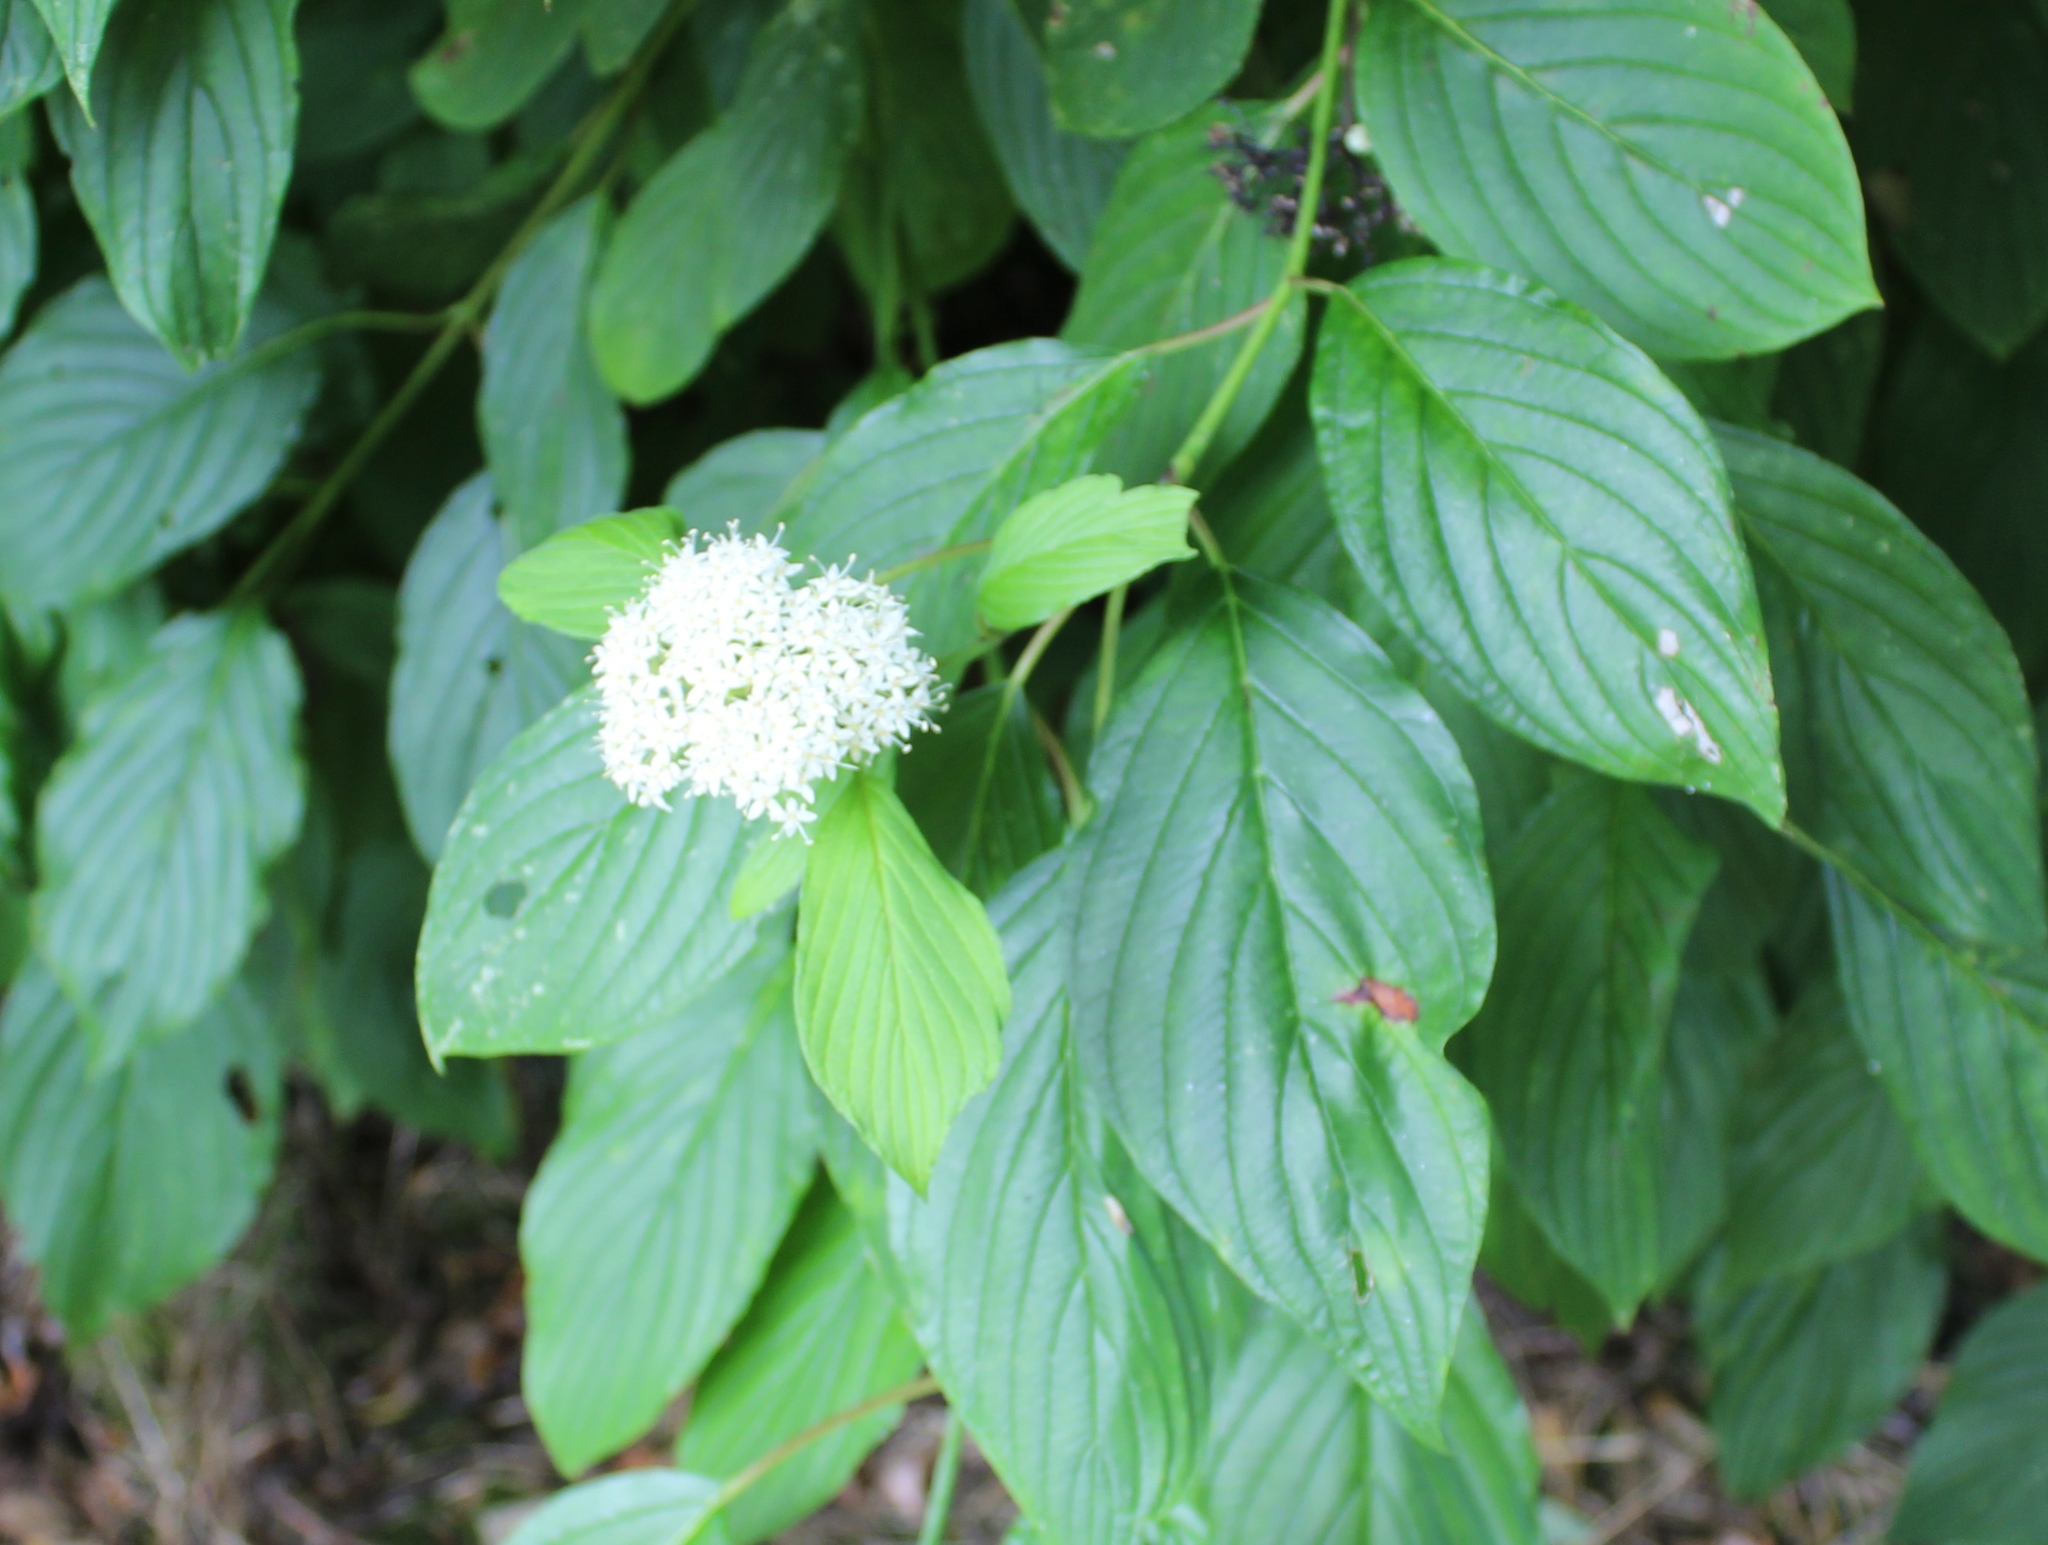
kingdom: Plantae
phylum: Tracheophyta
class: Magnoliopsida
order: Cornales
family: Cornaceae
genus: Cornus
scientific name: Cornus sericea
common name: Red-osier dogwood
